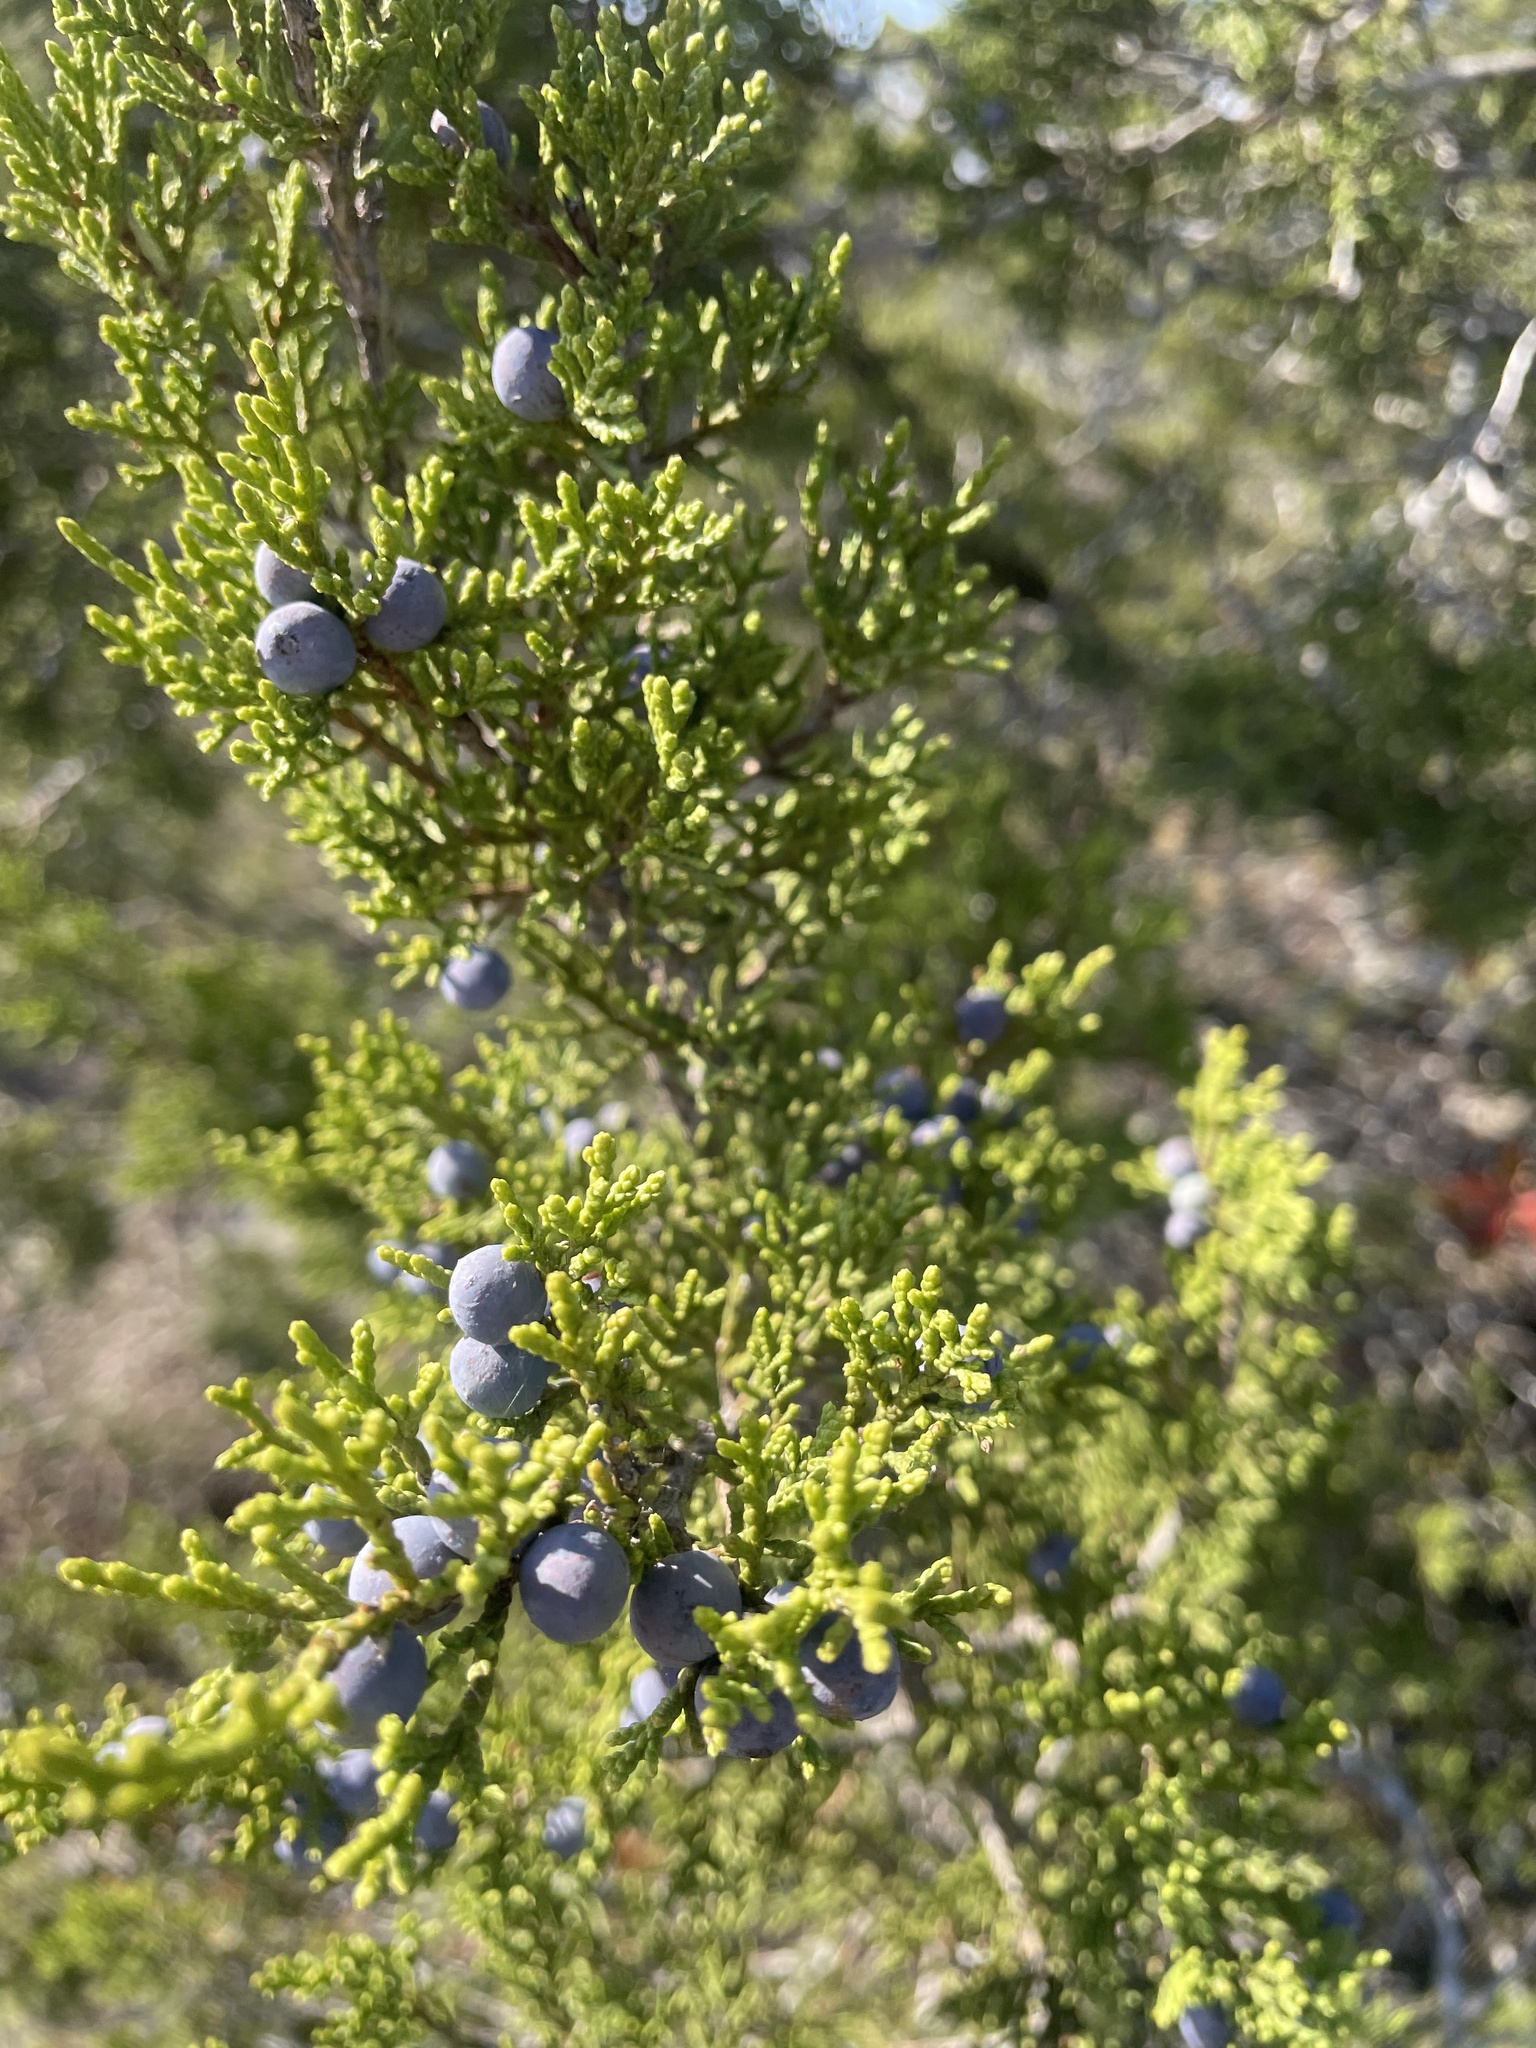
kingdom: Plantae
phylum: Tracheophyta
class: Pinopsida
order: Pinales
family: Cupressaceae
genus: Juniperus
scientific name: Juniperus ashei
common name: Mexican juniper
